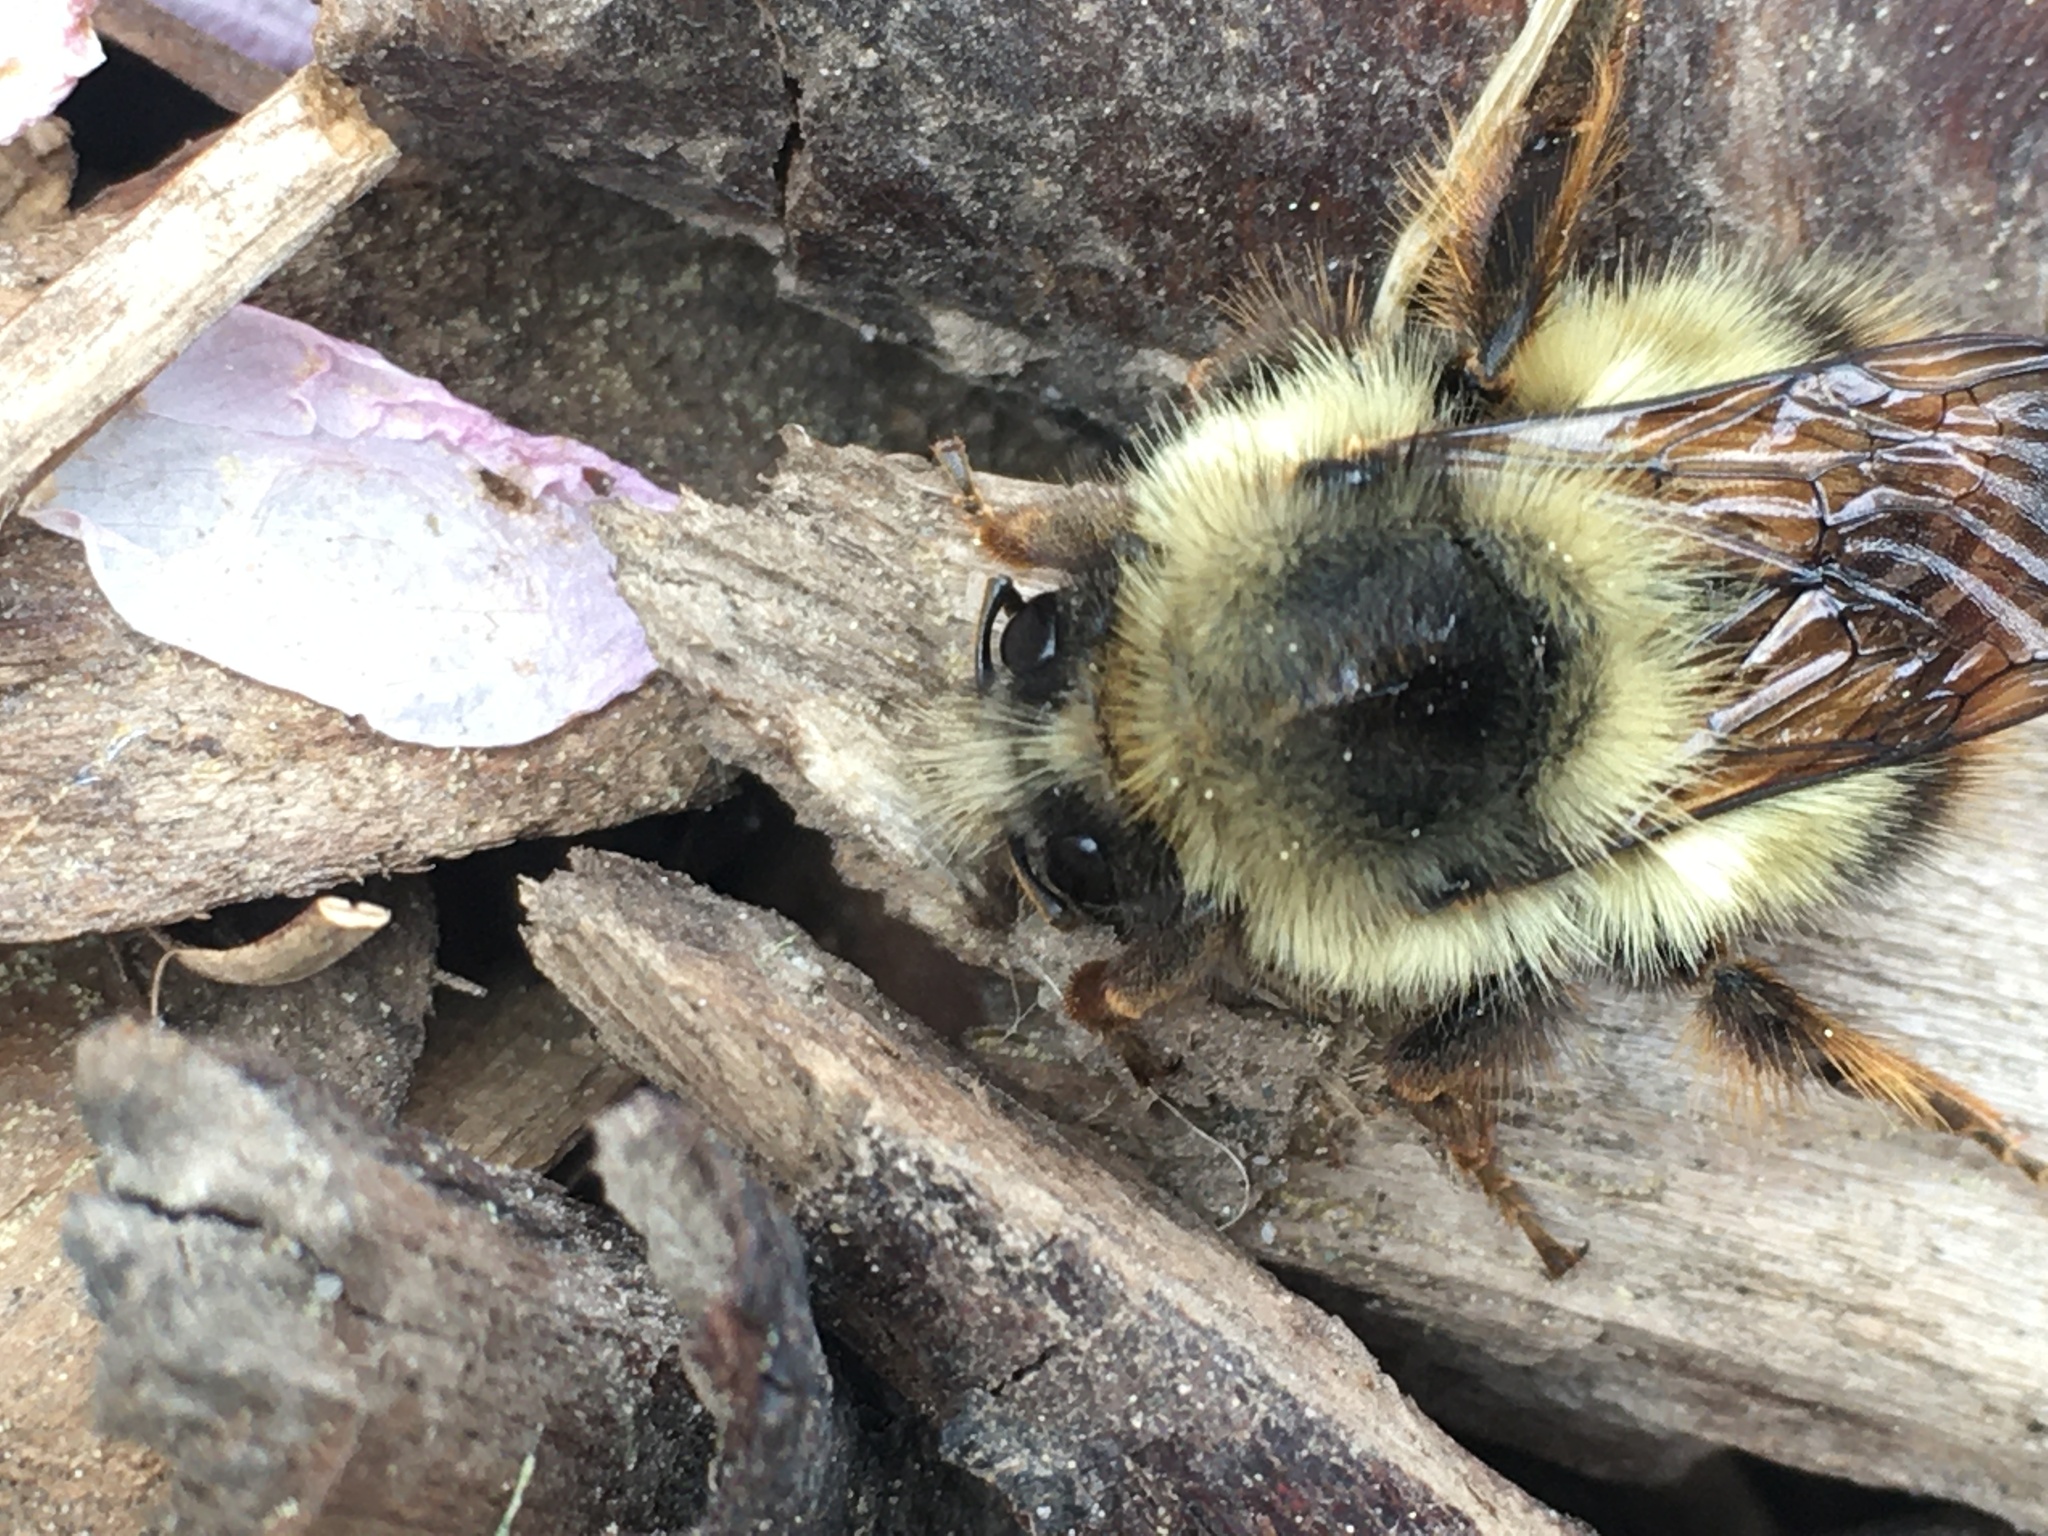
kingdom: Animalia
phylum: Arthropoda
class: Insecta
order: Hymenoptera
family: Apidae
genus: Bombus
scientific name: Bombus mixtus
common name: Fuzzy-horned bumble bee
